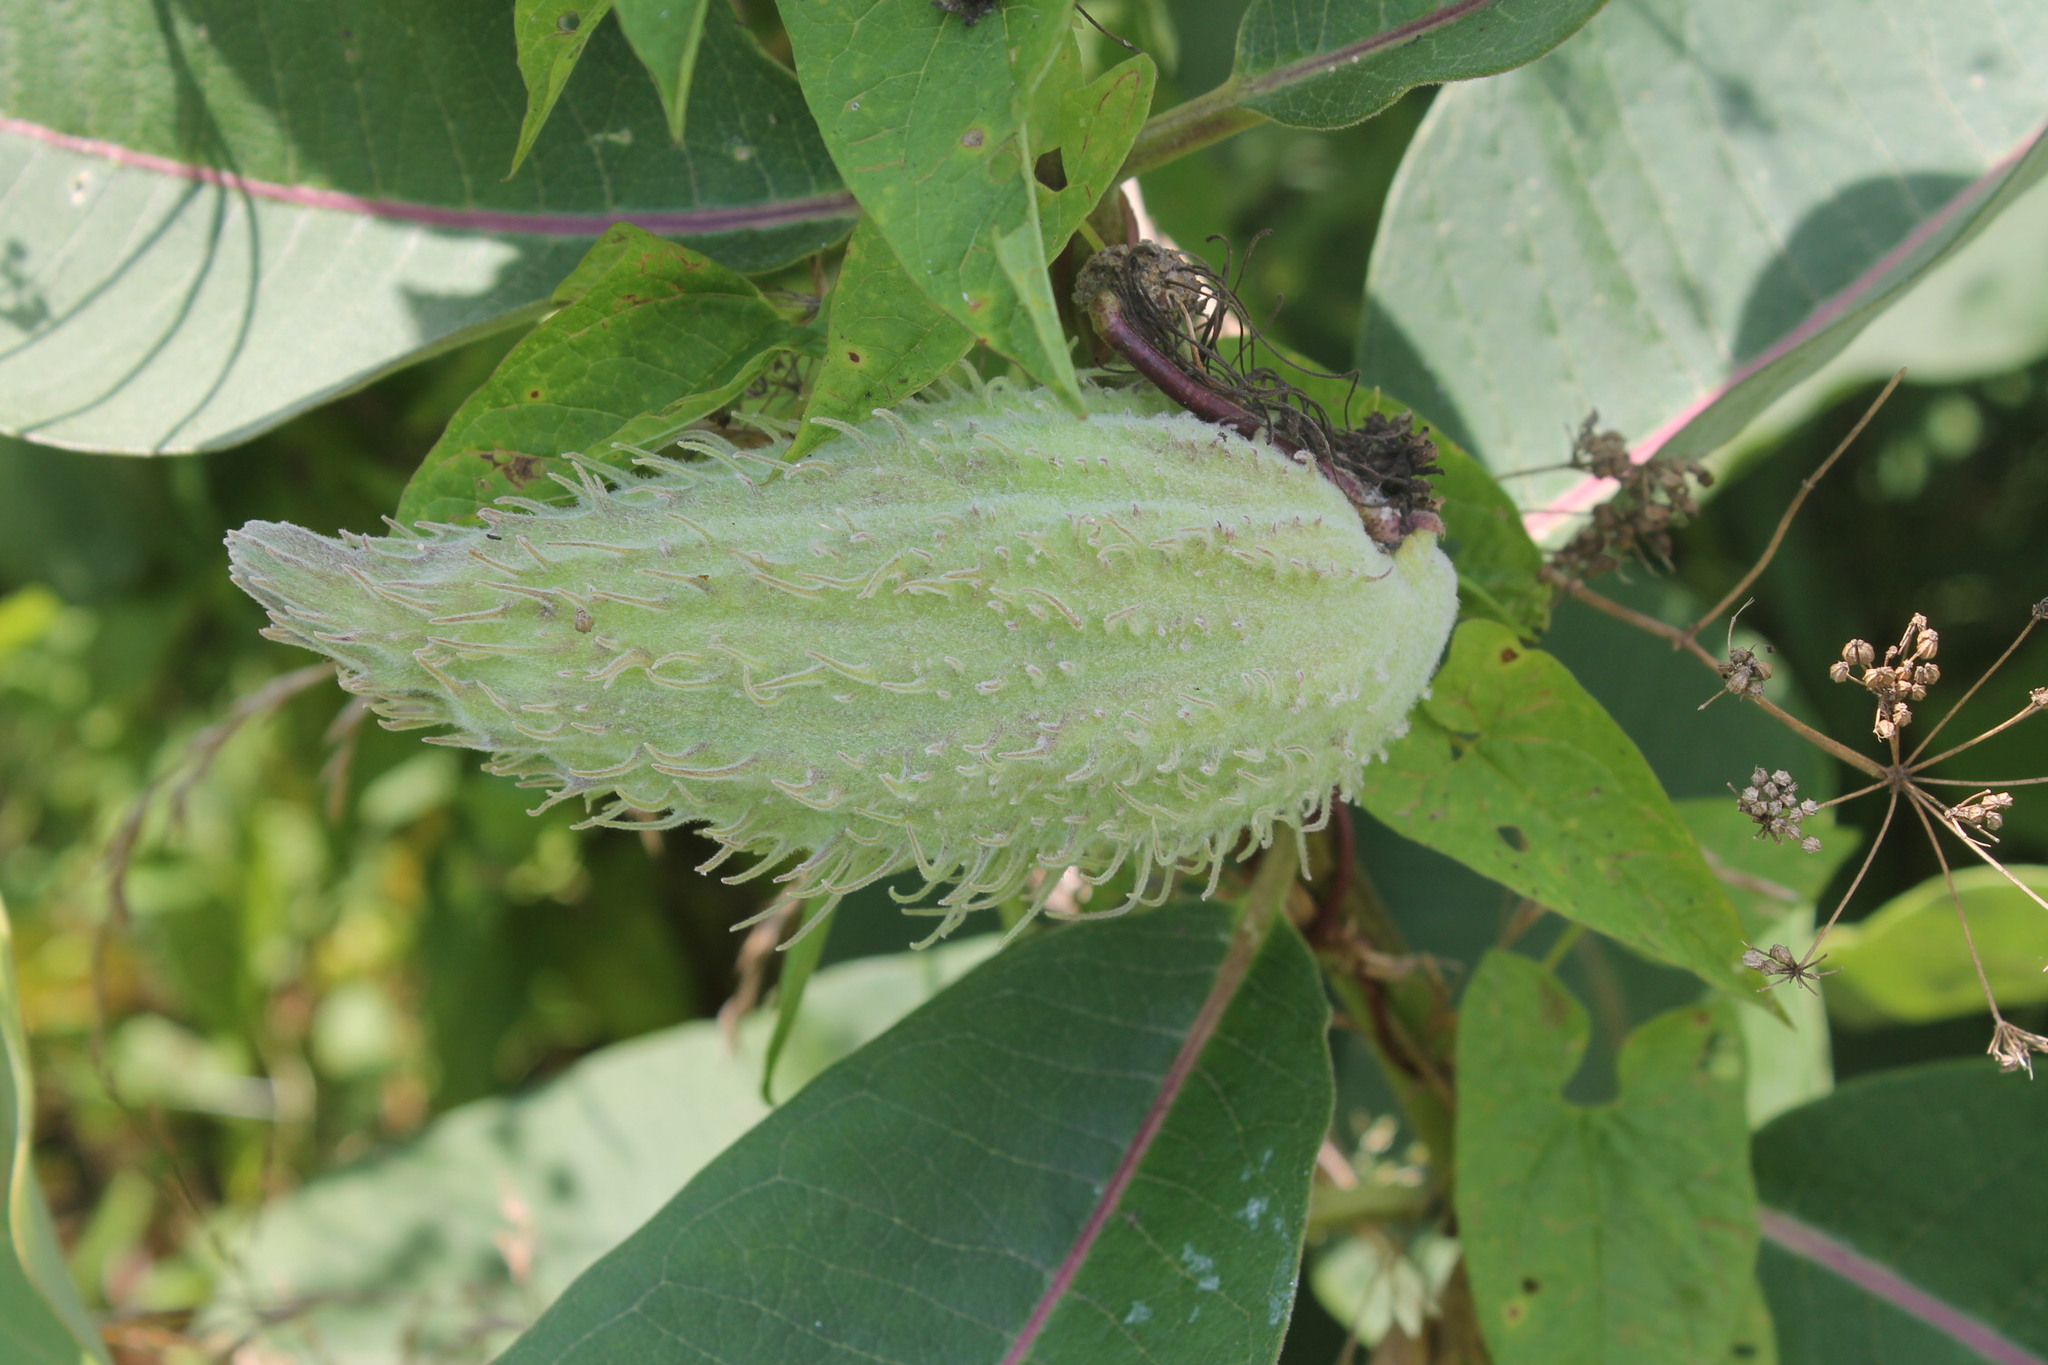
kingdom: Plantae
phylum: Tracheophyta
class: Magnoliopsida
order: Gentianales
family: Apocynaceae
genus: Asclepias
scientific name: Asclepias syriaca
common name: Common milkweed
